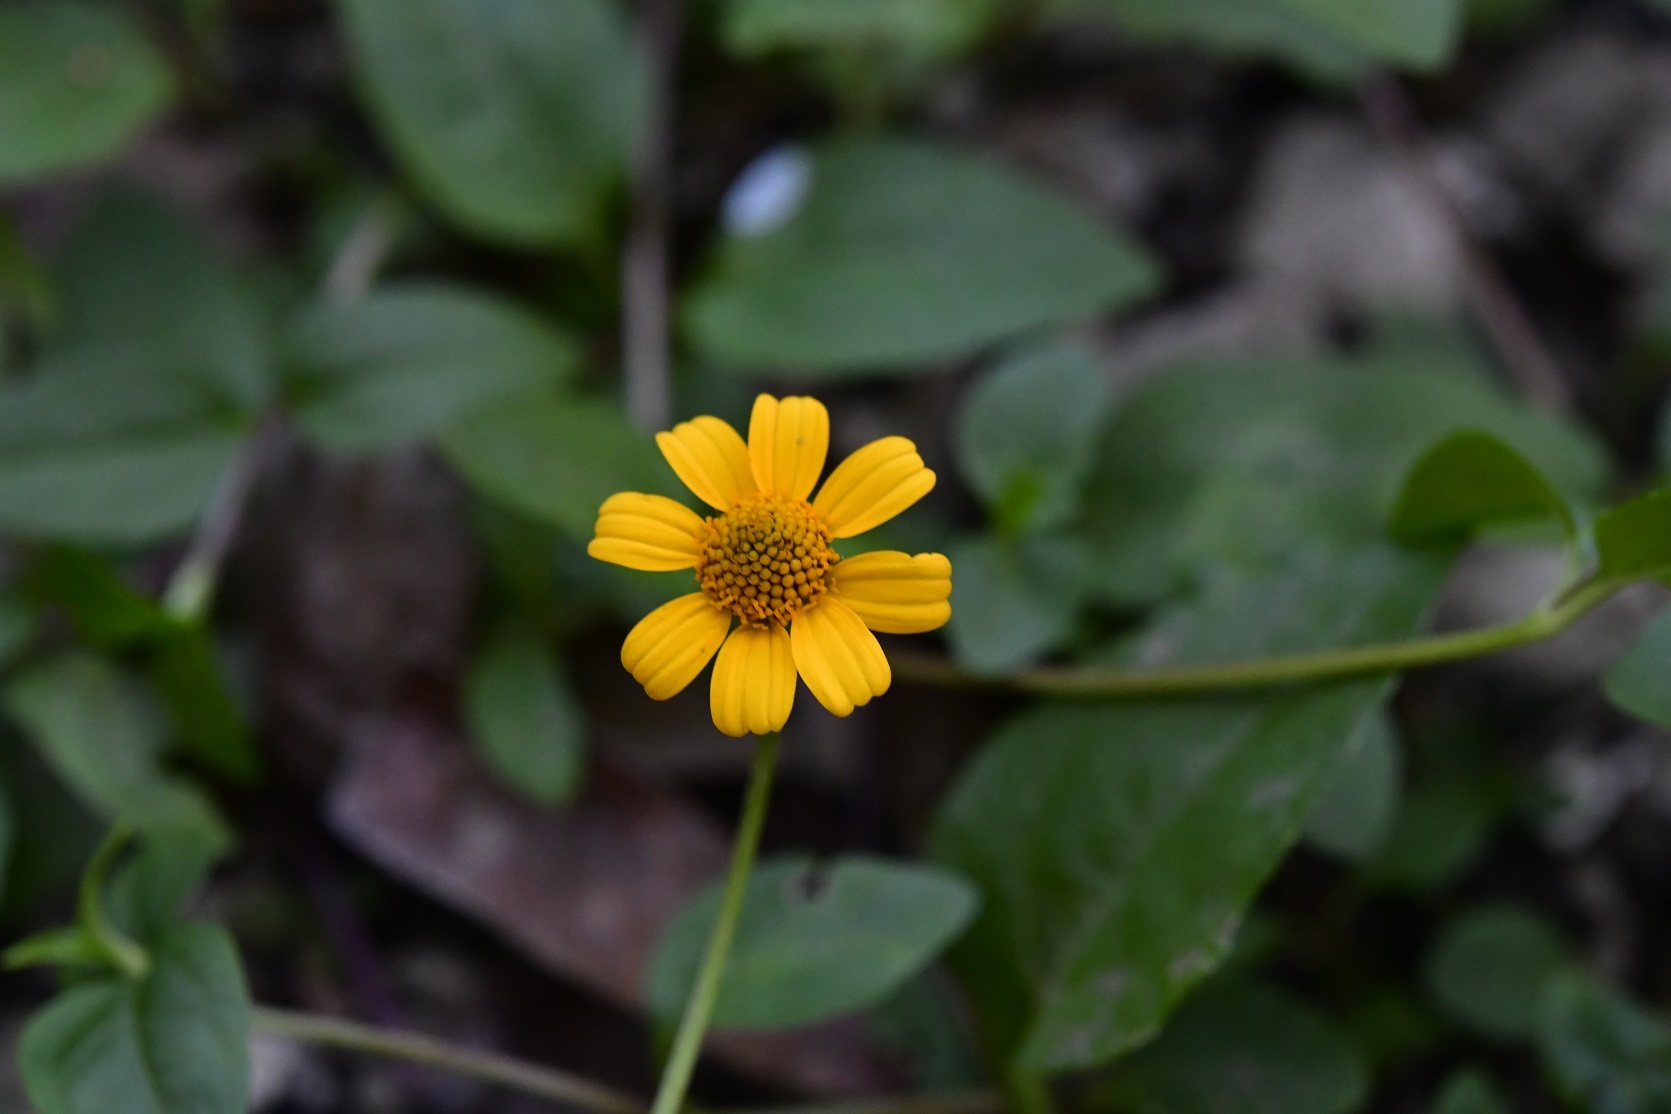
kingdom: Plantae
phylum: Tracheophyta
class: Magnoliopsida
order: Asterales
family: Asteraceae
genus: Acmella
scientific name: Acmella repens
